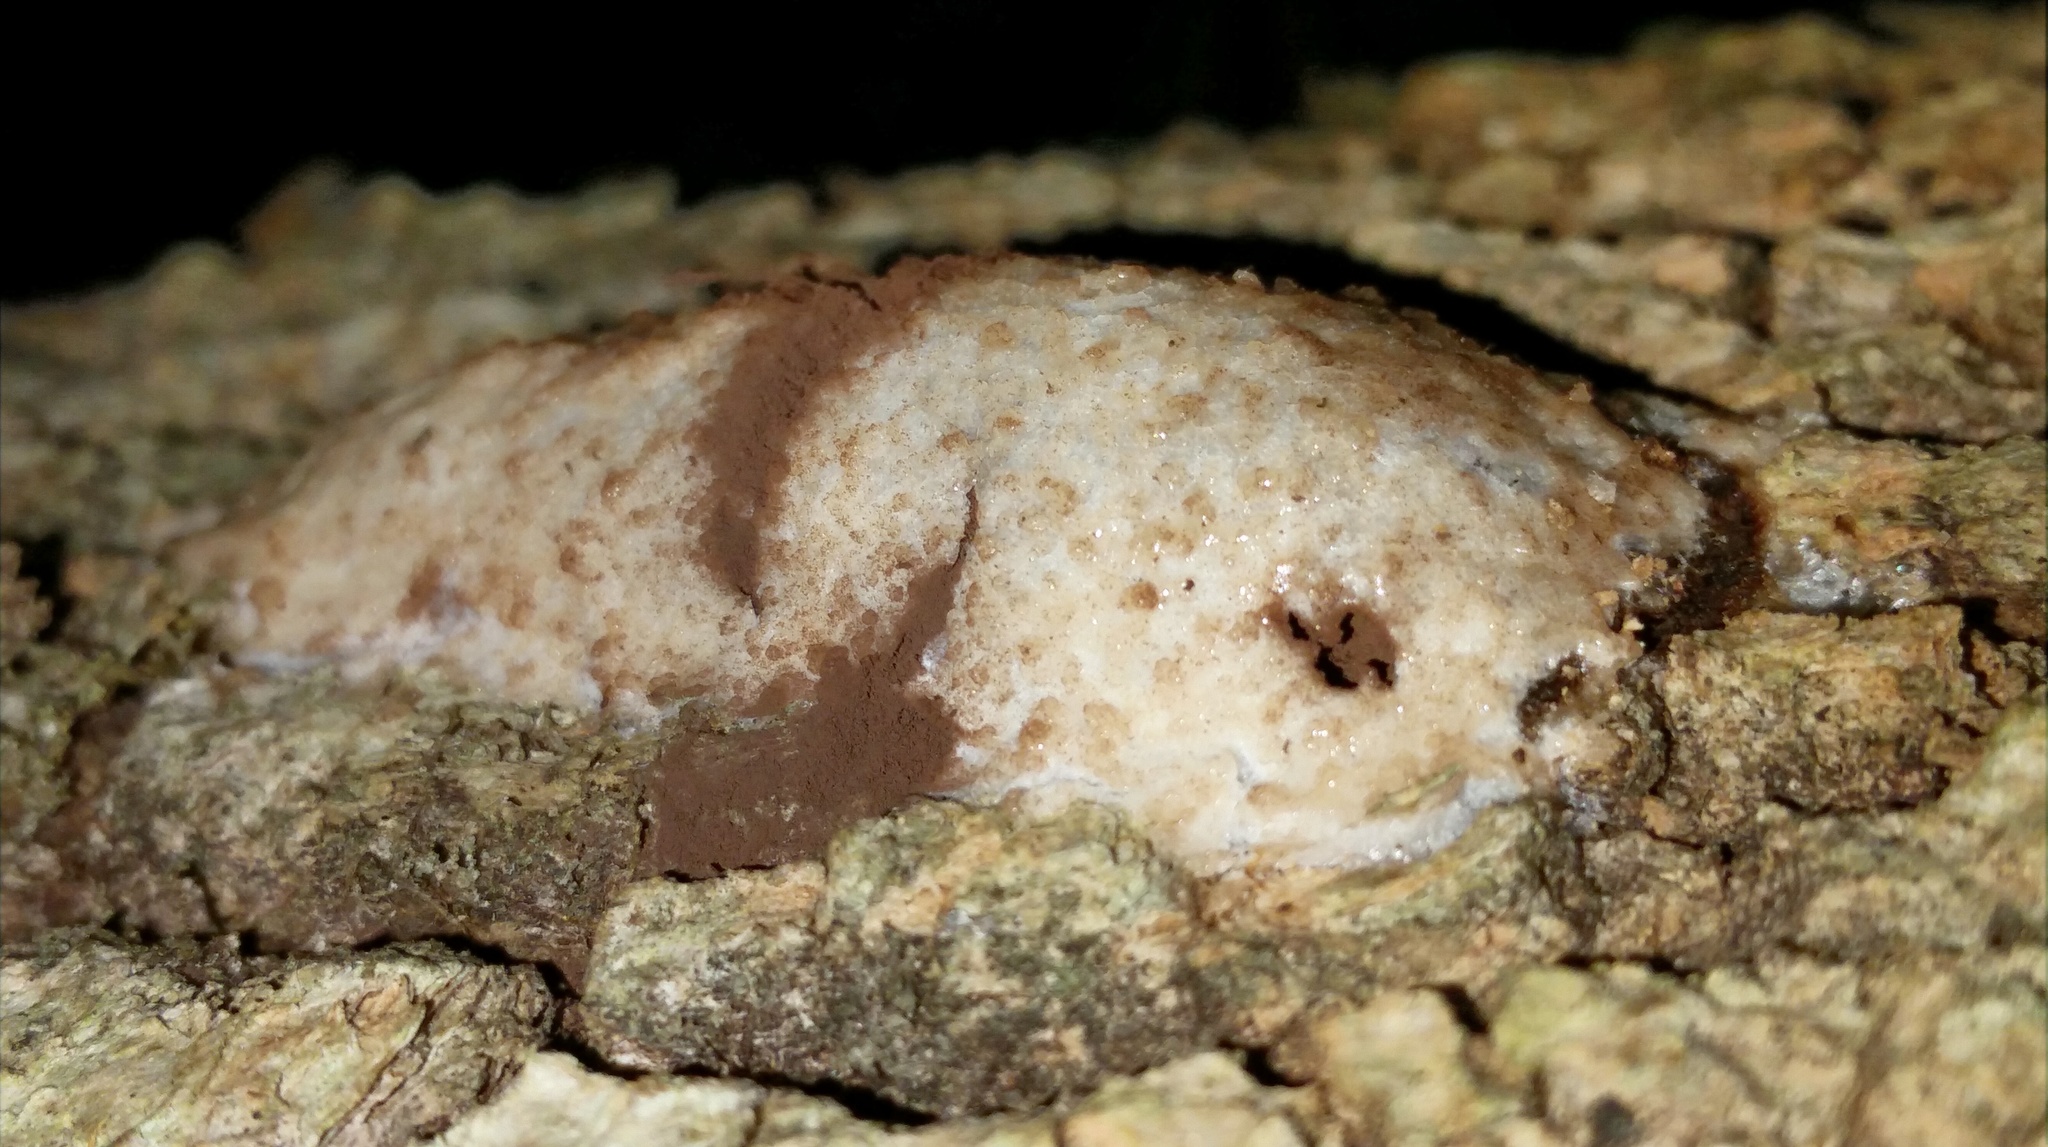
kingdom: Protozoa
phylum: Mycetozoa
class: Myxomycetes
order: Cribrariales
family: Tubiferaceae
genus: Reticularia
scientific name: Reticularia lycoperdon
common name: False puffball
